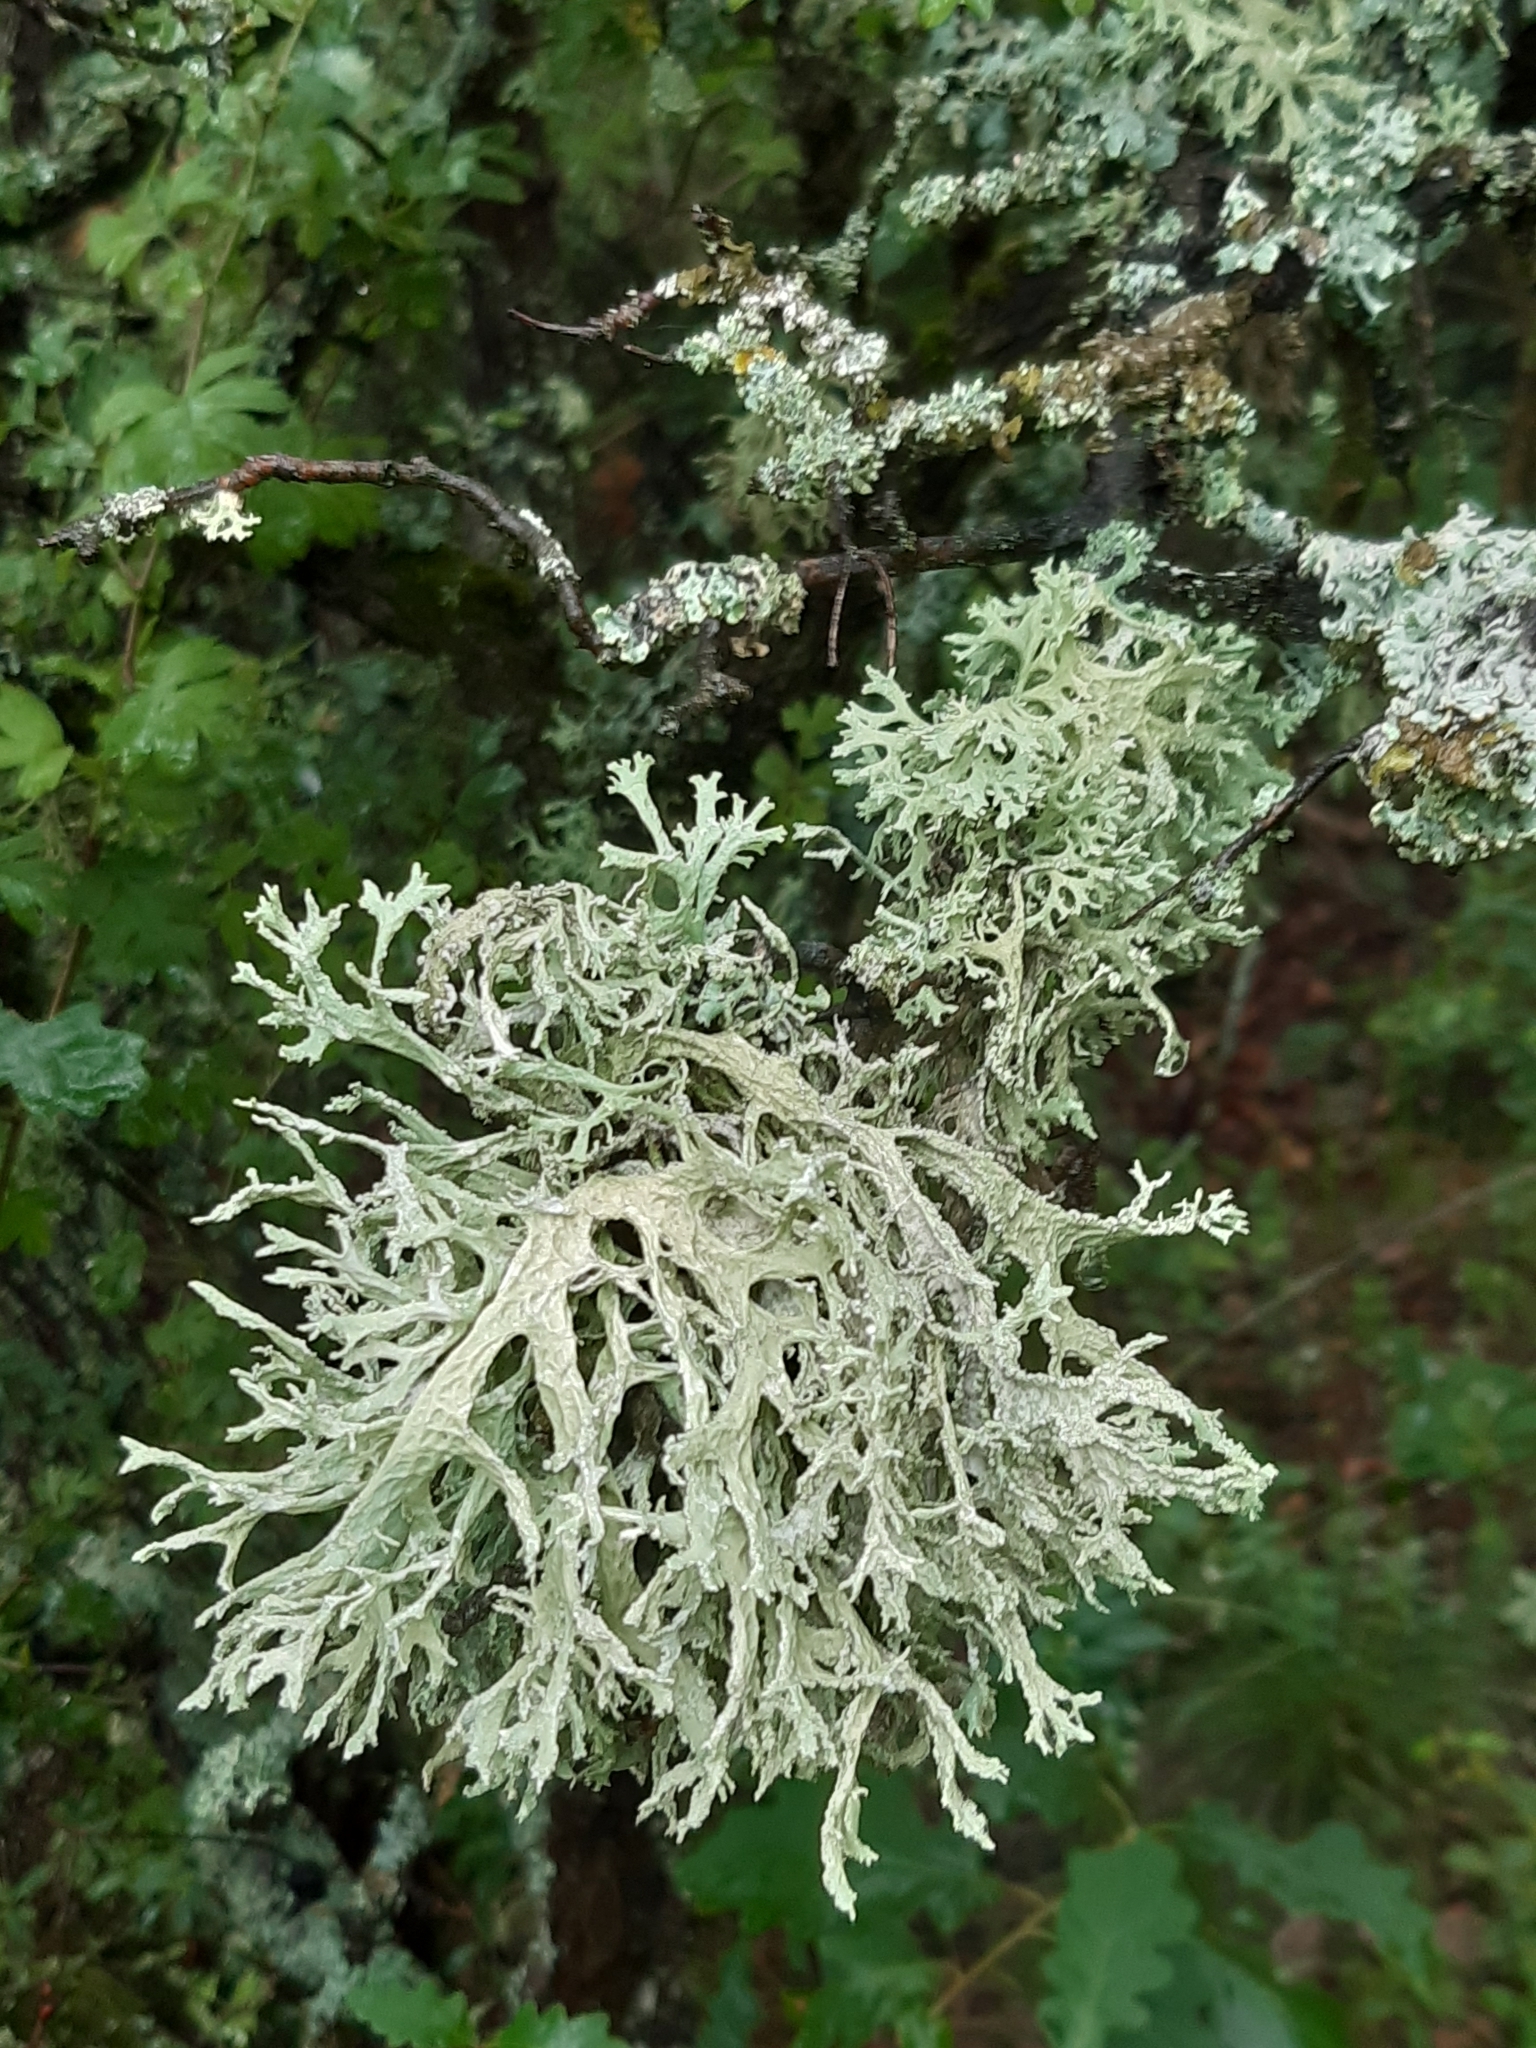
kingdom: Fungi
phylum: Ascomycota
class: Lecanoromycetes
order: Lecanorales
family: Parmeliaceae
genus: Evernia
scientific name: Evernia prunastri
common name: Oak moss
